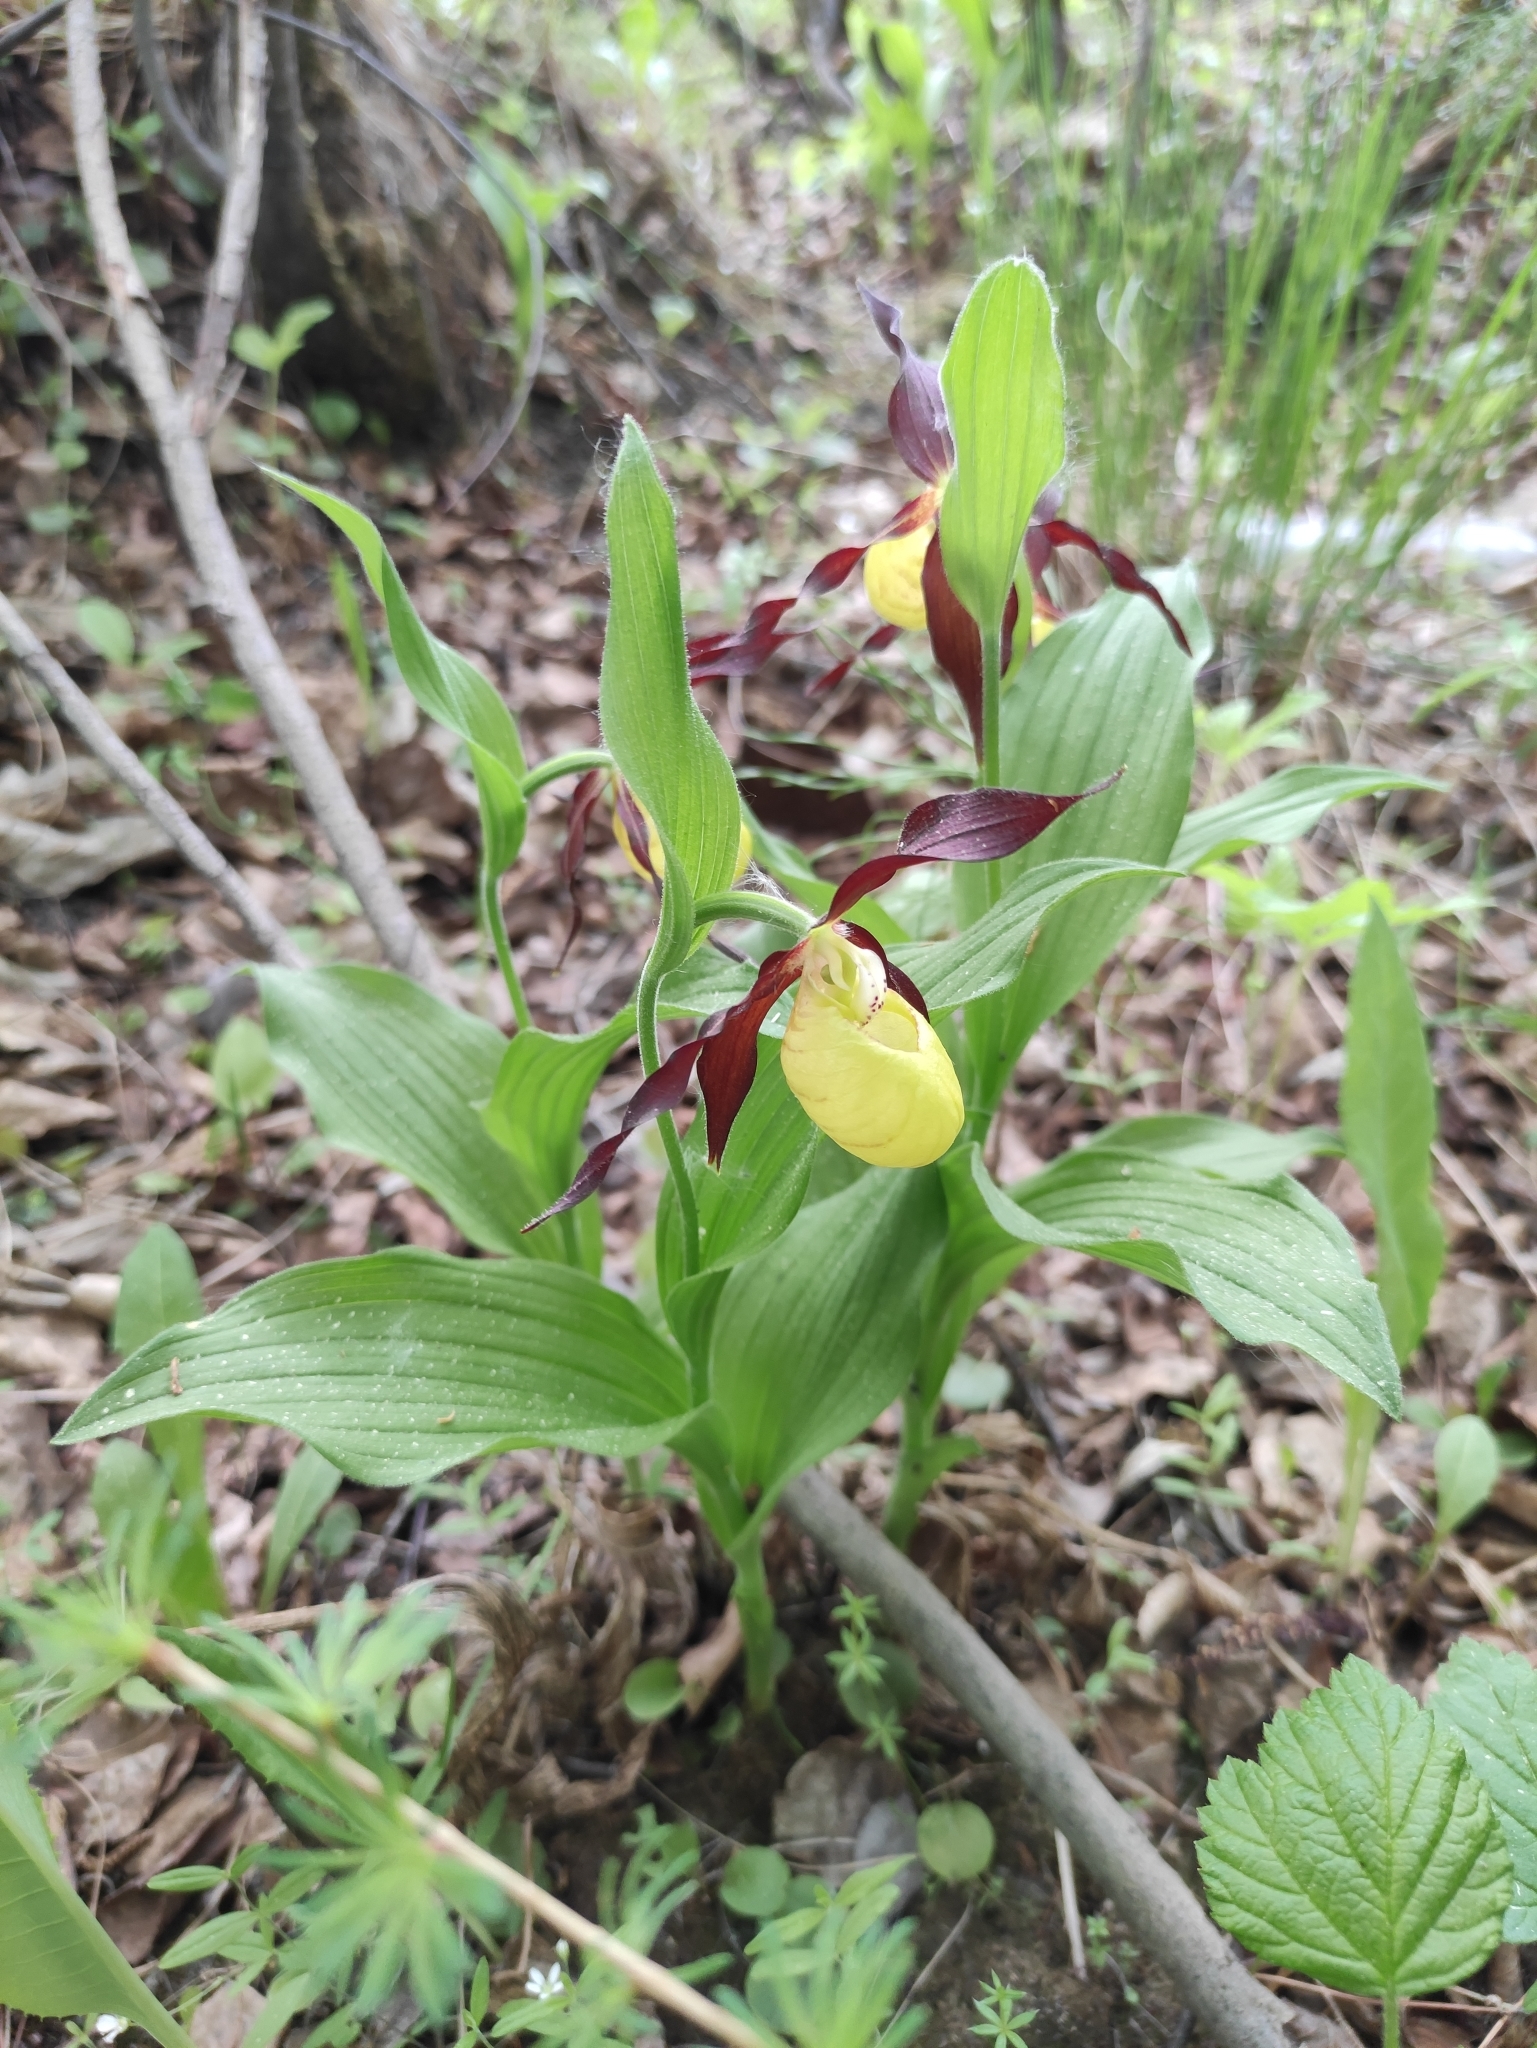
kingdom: Plantae
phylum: Tracheophyta
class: Liliopsida
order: Asparagales
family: Orchidaceae
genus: Cypripedium
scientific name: Cypripedium calceolus
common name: Lady's-slipper
